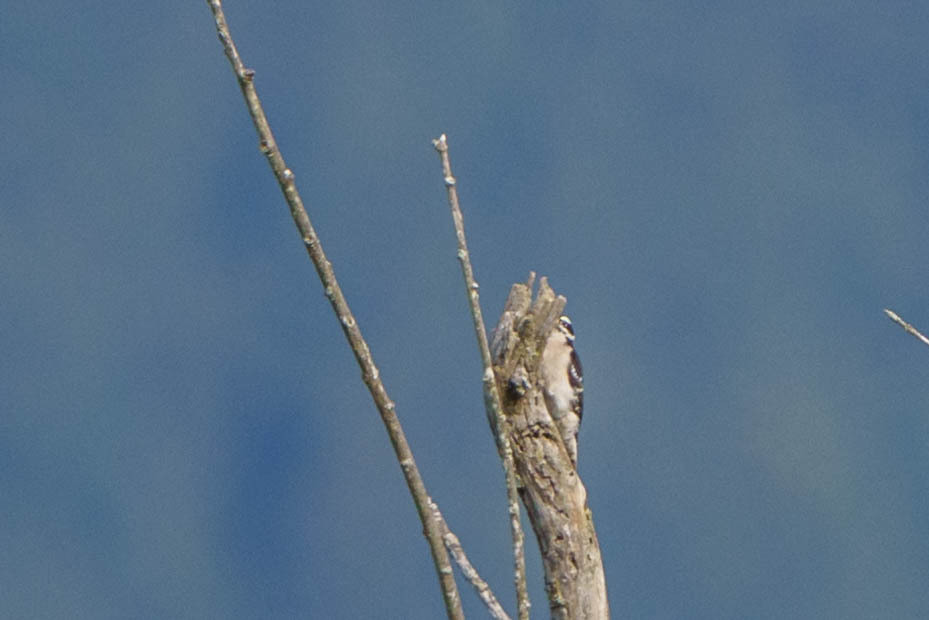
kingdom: Animalia
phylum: Chordata
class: Aves
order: Piciformes
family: Picidae
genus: Dryobates
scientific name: Dryobates pubescens
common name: Downy woodpecker
